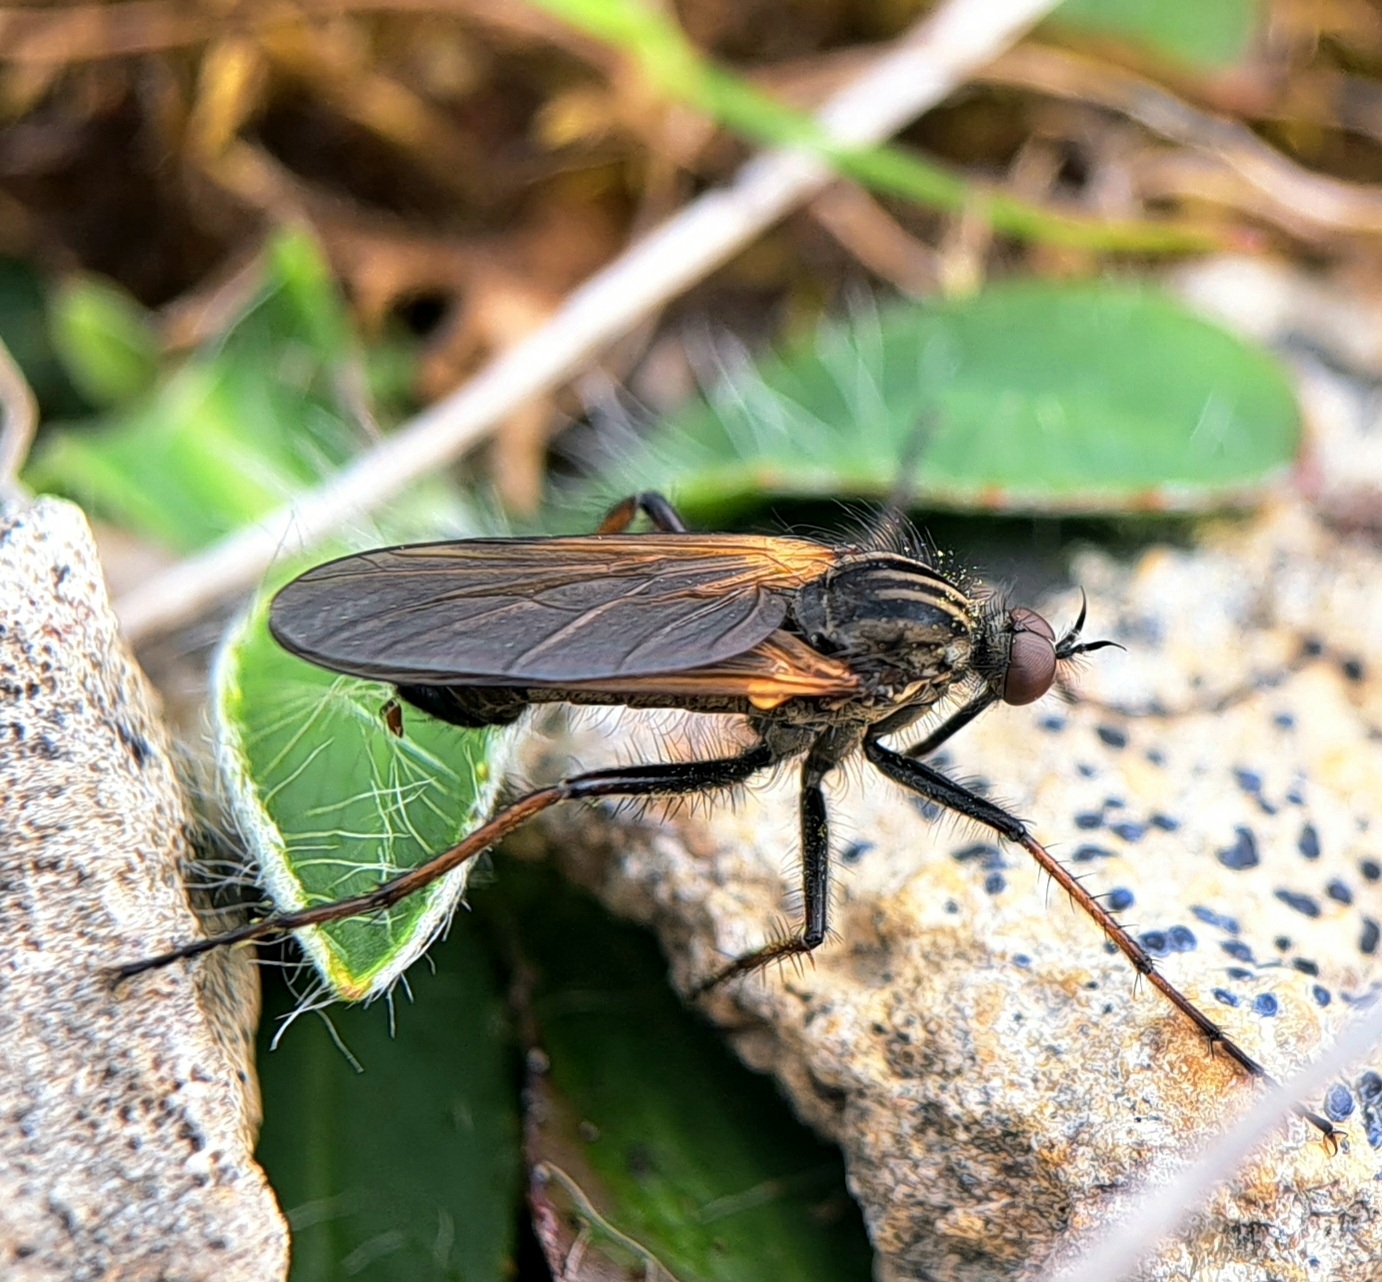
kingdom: Animalia
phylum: Arthropoda
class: Insecta
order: Diptera
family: Empididae
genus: Empis
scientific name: Empis tessellata
